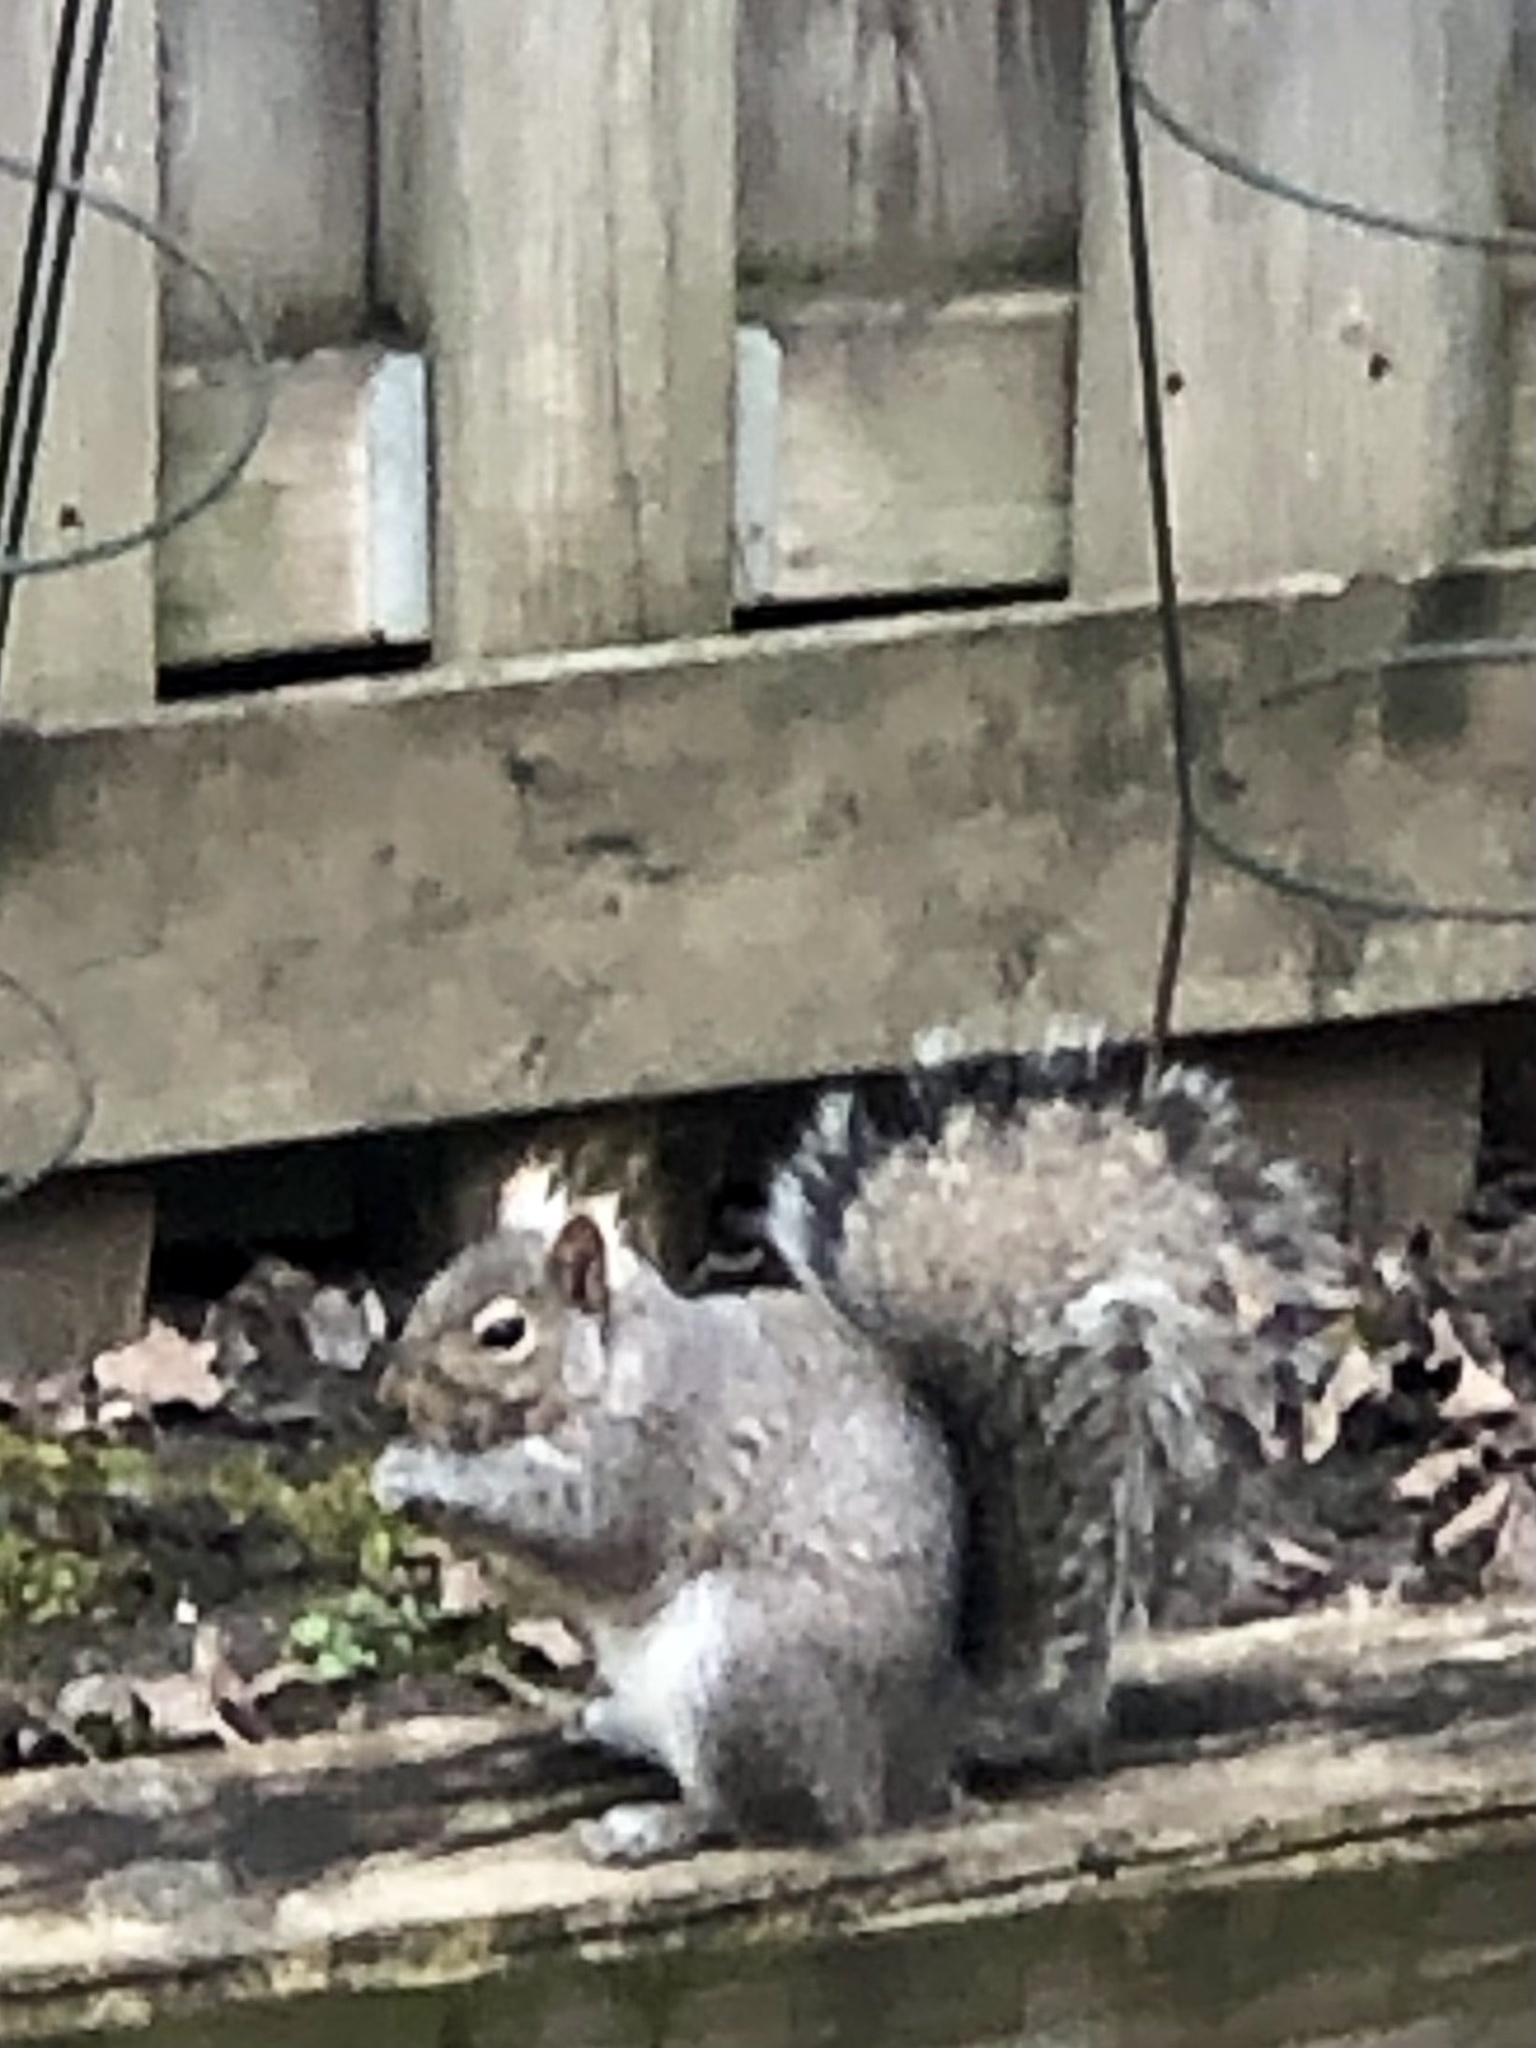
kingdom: Animalia
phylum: Chordata
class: Mammalia
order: Rodentia
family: Sciuridae
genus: Sciurus
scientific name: Sciurus carolinensis
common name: Eastern gray squirrel
